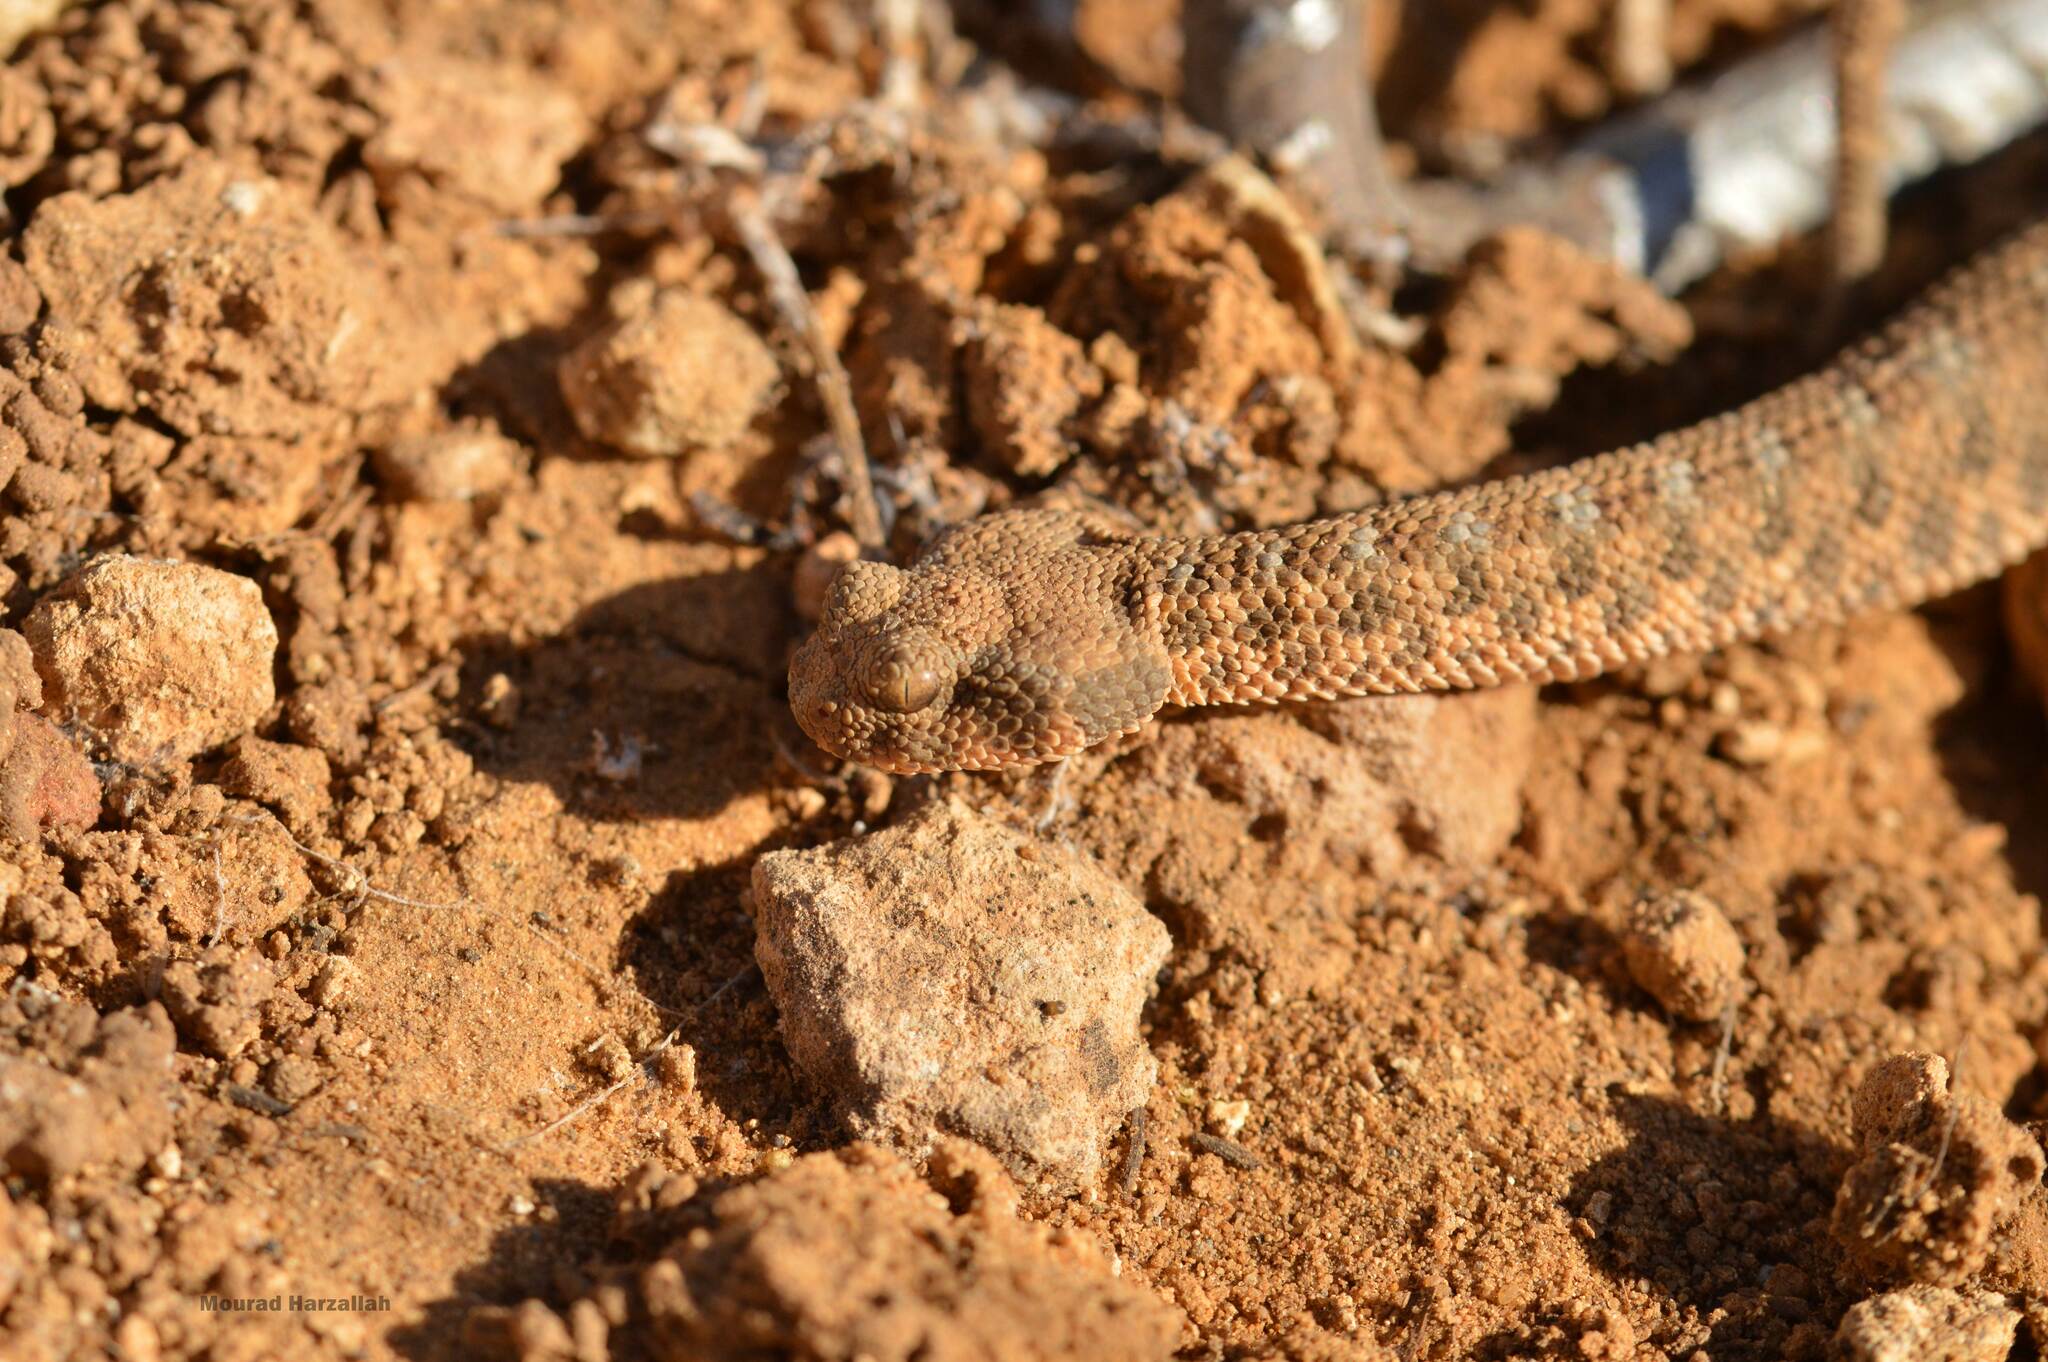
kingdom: Animalia
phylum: Chordata
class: Squamata
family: Viperidae
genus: Cerastes
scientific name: Cerastes cerastes
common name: Desert horned viper
